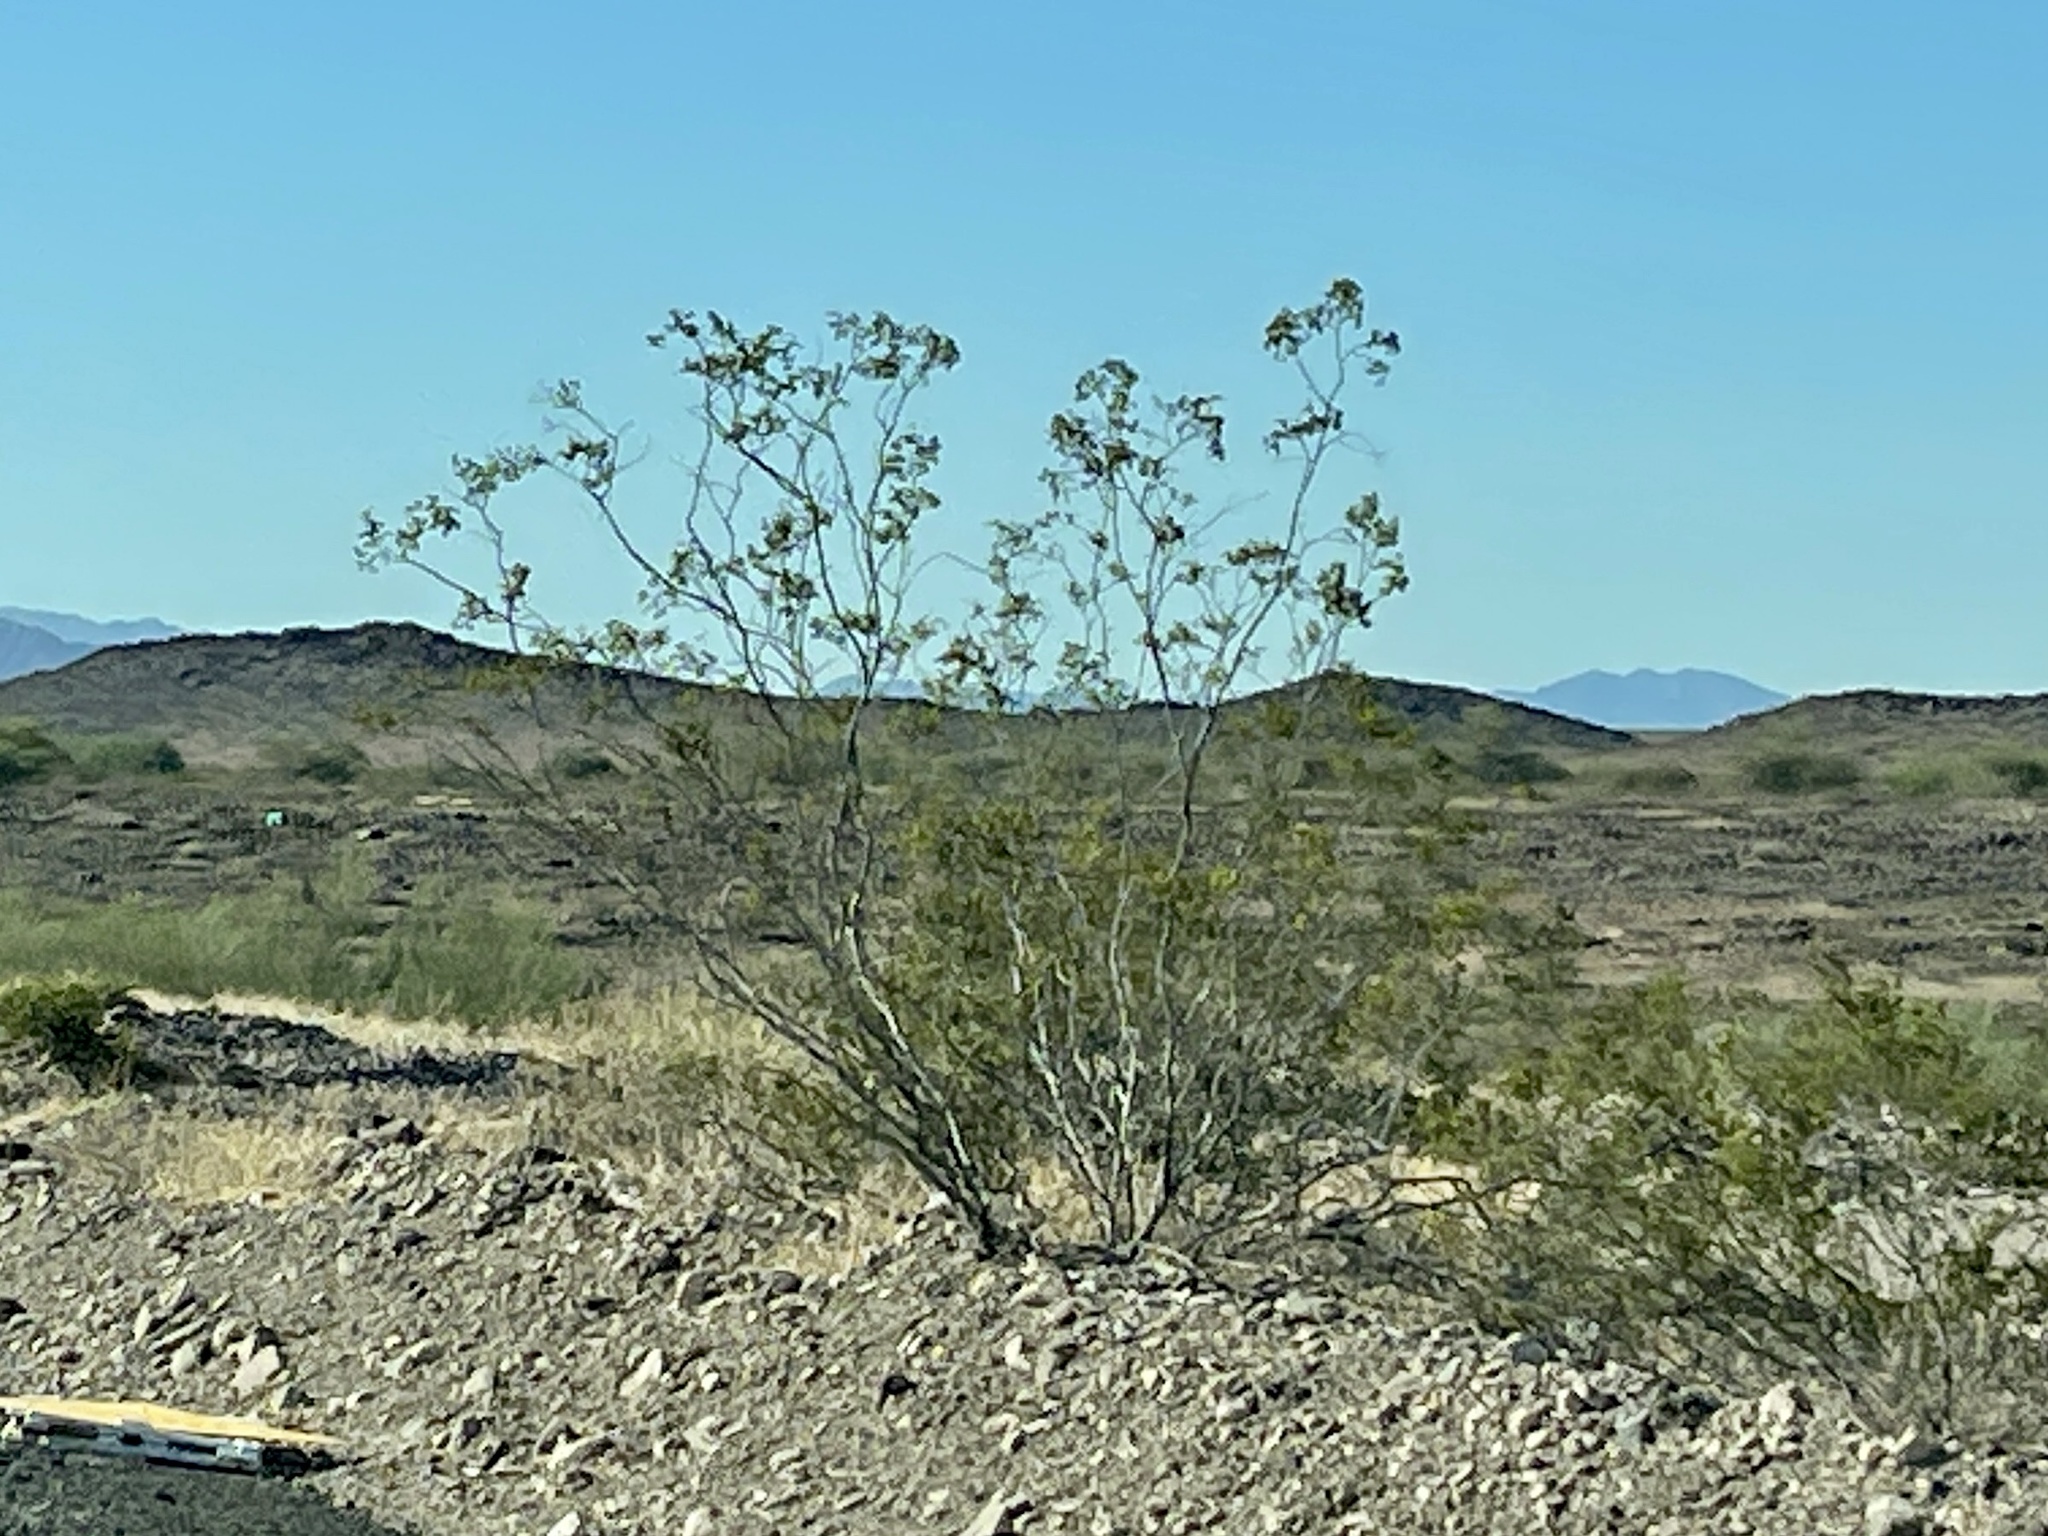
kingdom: Plantae
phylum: Tracheophyta
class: Magnoliopsida
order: Zygophyllales
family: Zygophyllaceae
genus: Larrea
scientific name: Larrea tridentata
